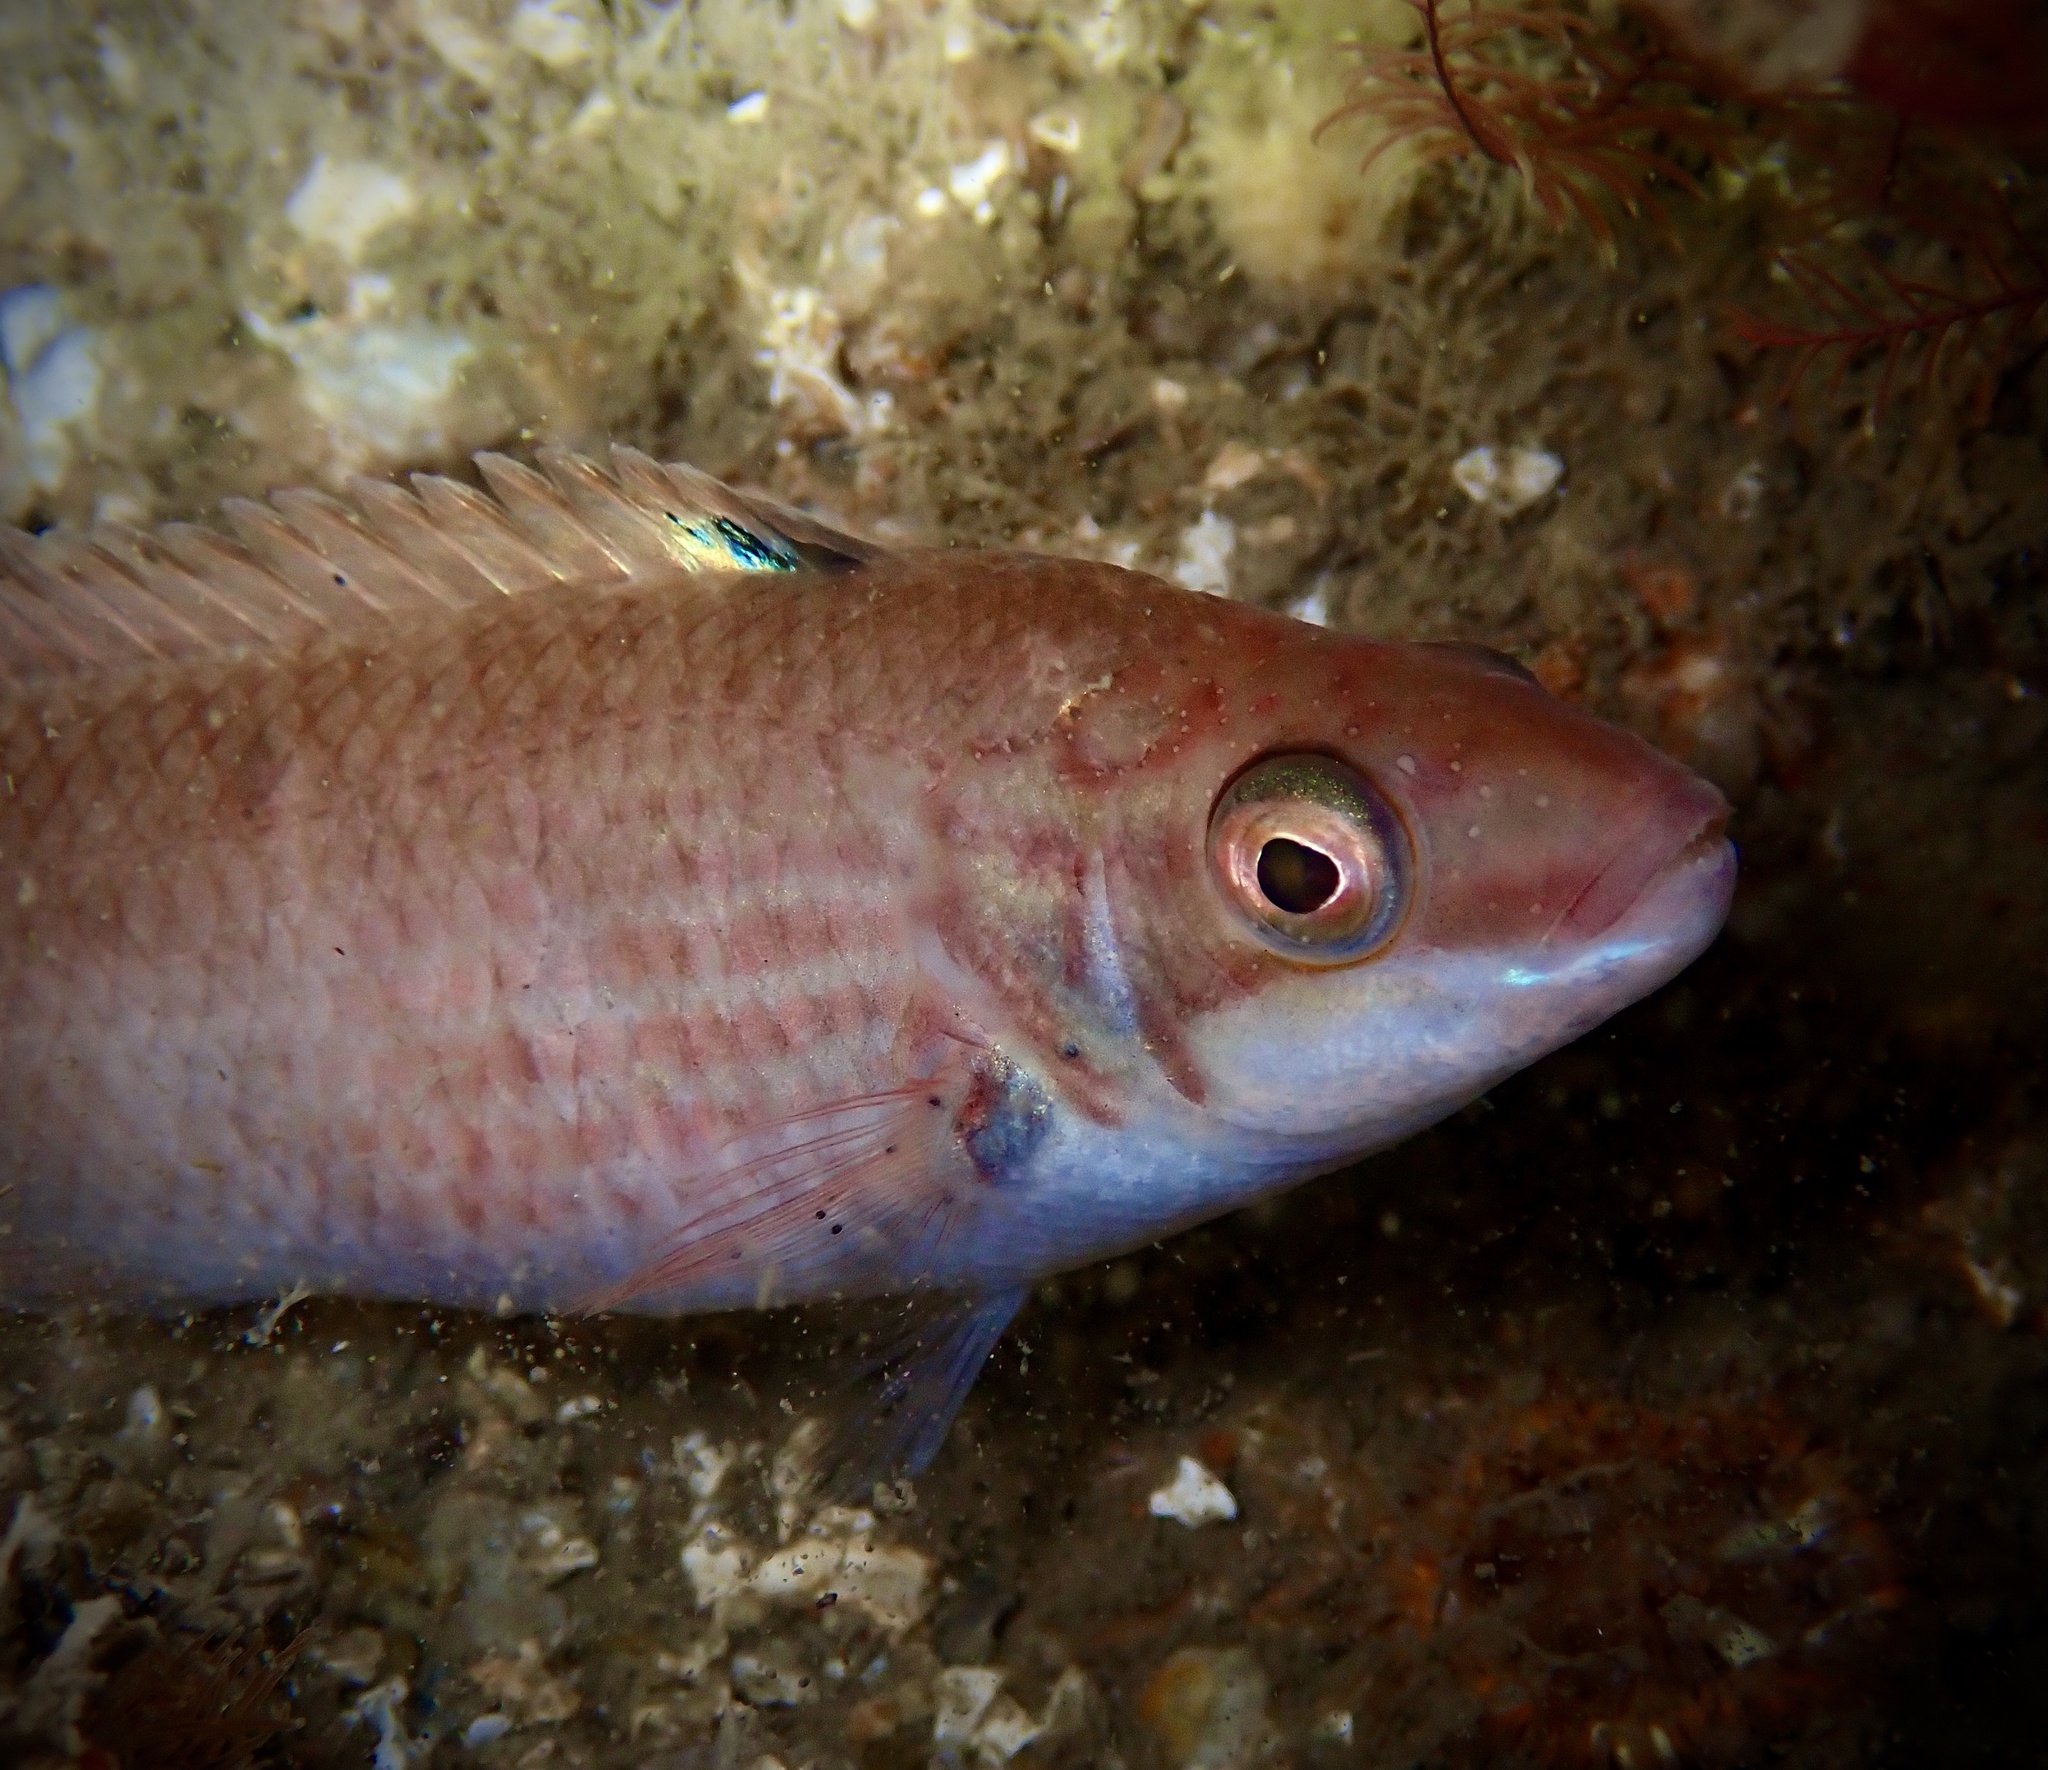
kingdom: Animalia
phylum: Chordata
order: Perciformes
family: Labridae
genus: Ctenolabrus
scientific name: Ctenolabrus rupestris
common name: Goldsinny
